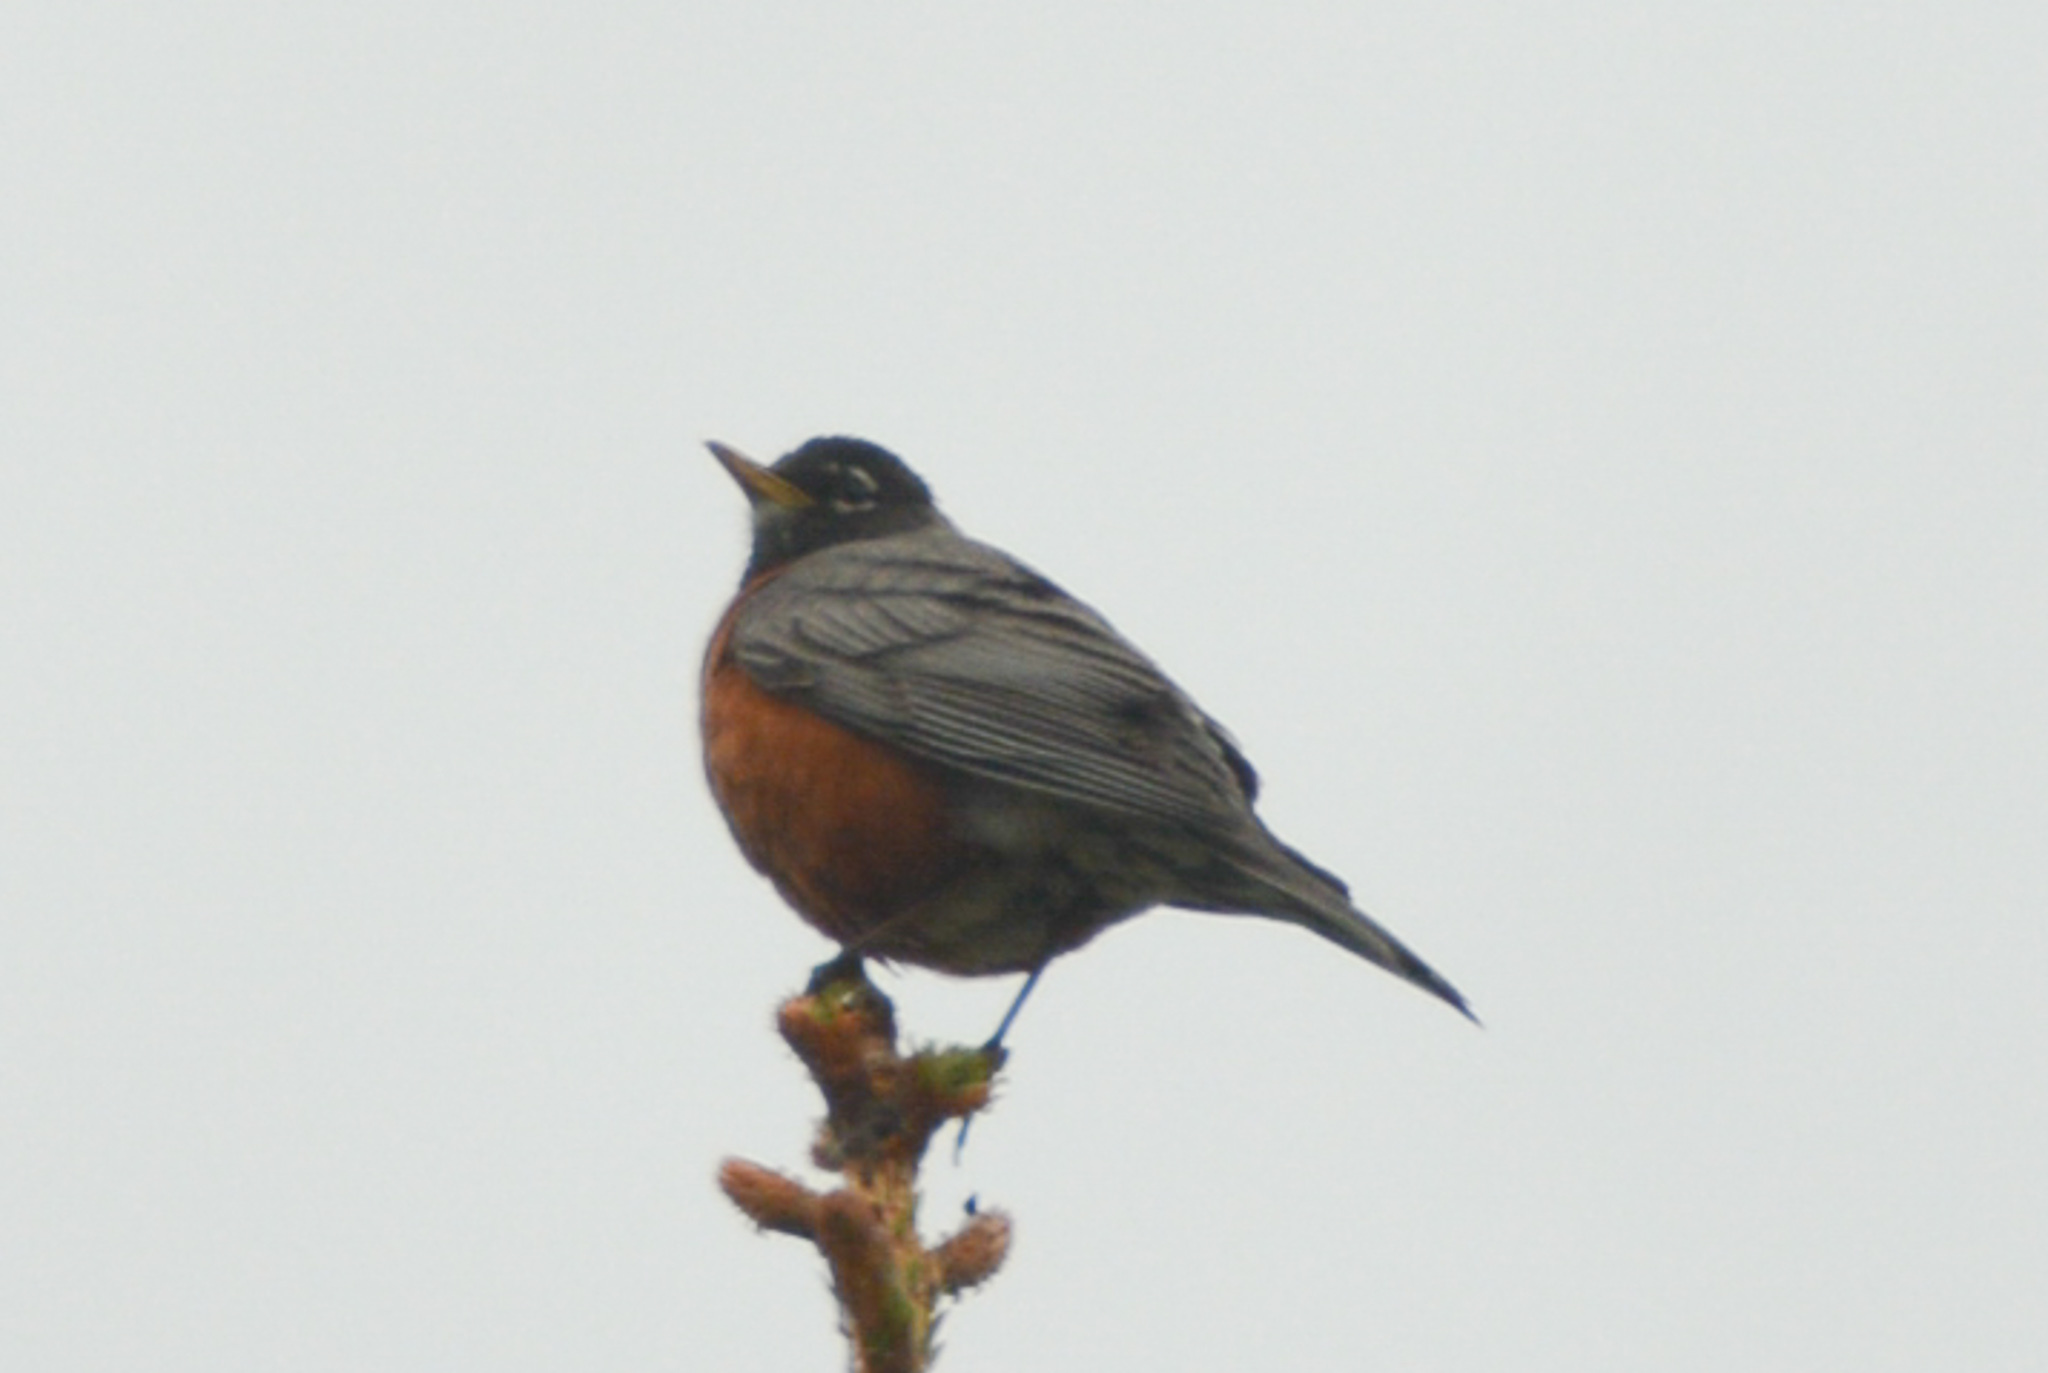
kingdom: Animalia
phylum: Chordata
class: Aves
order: Passeriformes
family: Turdidae
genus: Turdus
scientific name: Turdus migratorius
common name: American robin
